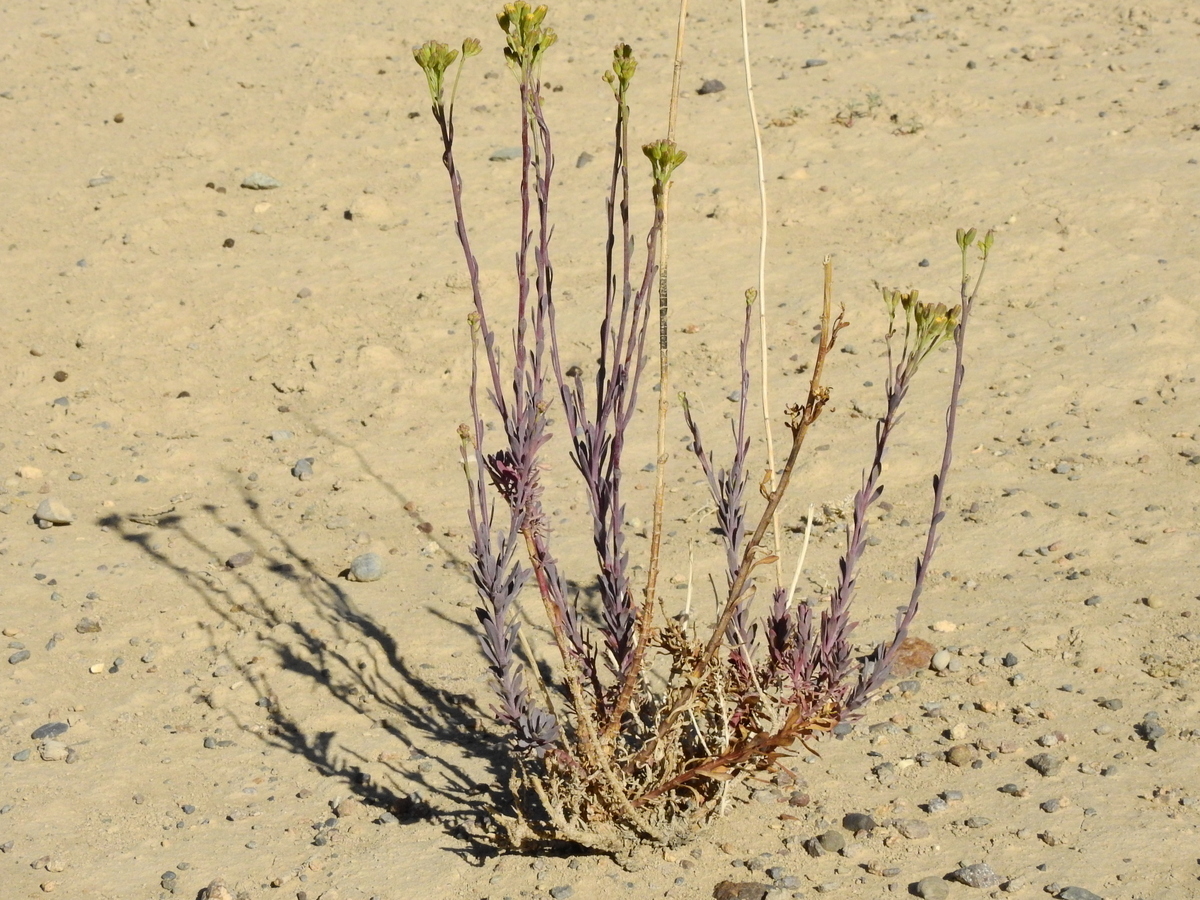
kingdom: Plantae
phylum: Tracheophyta
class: Magnoliopsida
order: Asterales
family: Asteraceae
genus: Senecio
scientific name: Senecio subumbellatus
